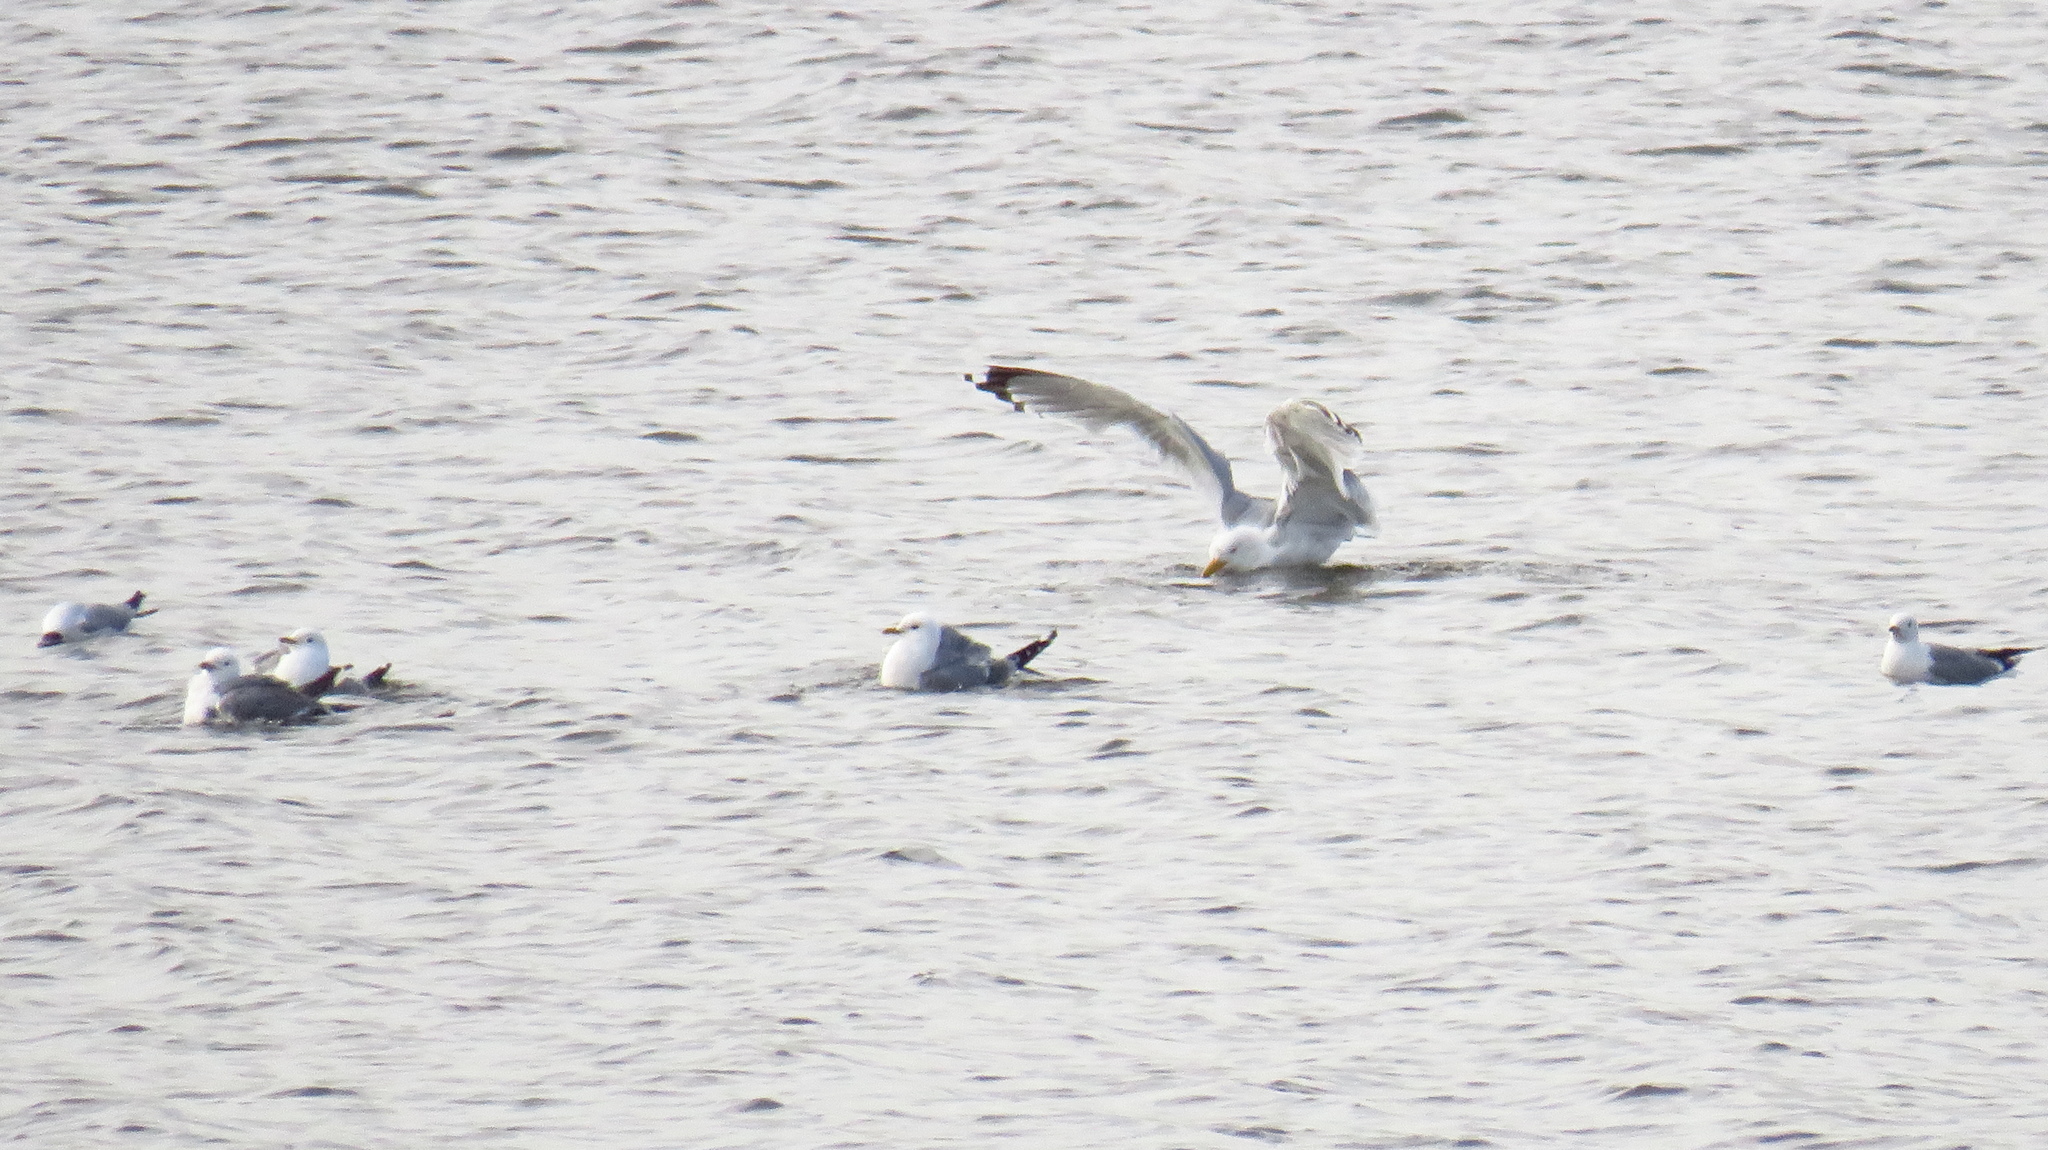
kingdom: Animalia
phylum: Chordata
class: Aves
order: Charadriiformes
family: Laridae
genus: Larus
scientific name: Larus argentatus
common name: Herring gull
